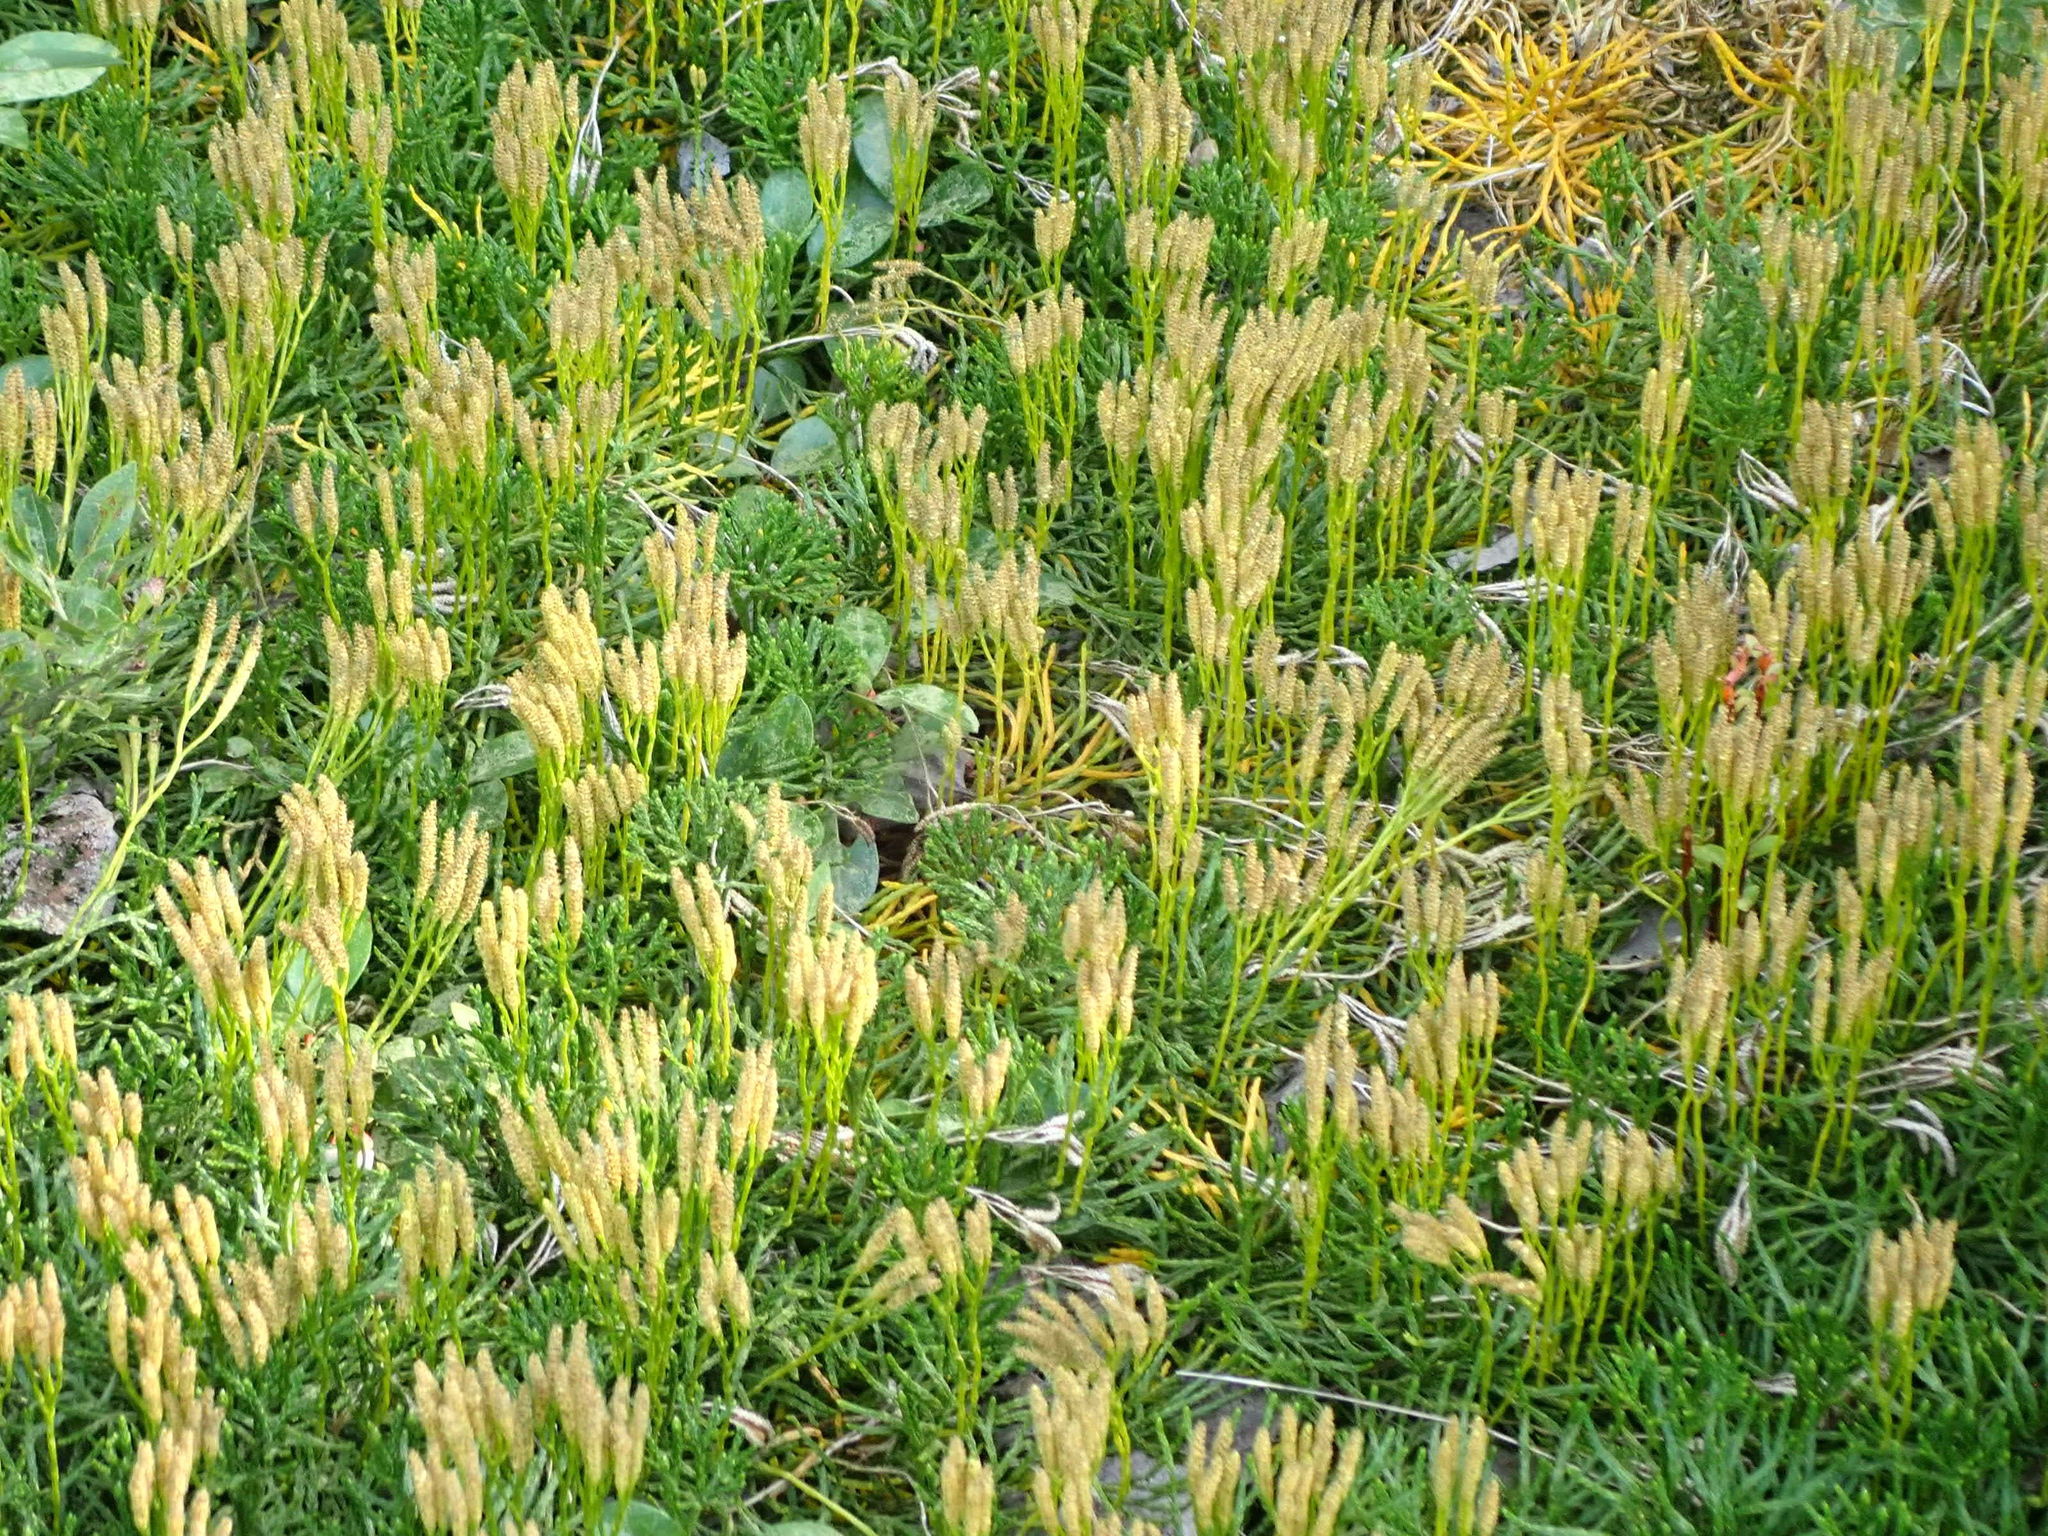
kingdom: Plantae
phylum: Tracheophyta
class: Lycopodiopsida
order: Lycopodiales
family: Lycopodiaceae
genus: Diphasiastrum
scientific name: Diphasiastrum complanatum
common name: Northern running-pine
